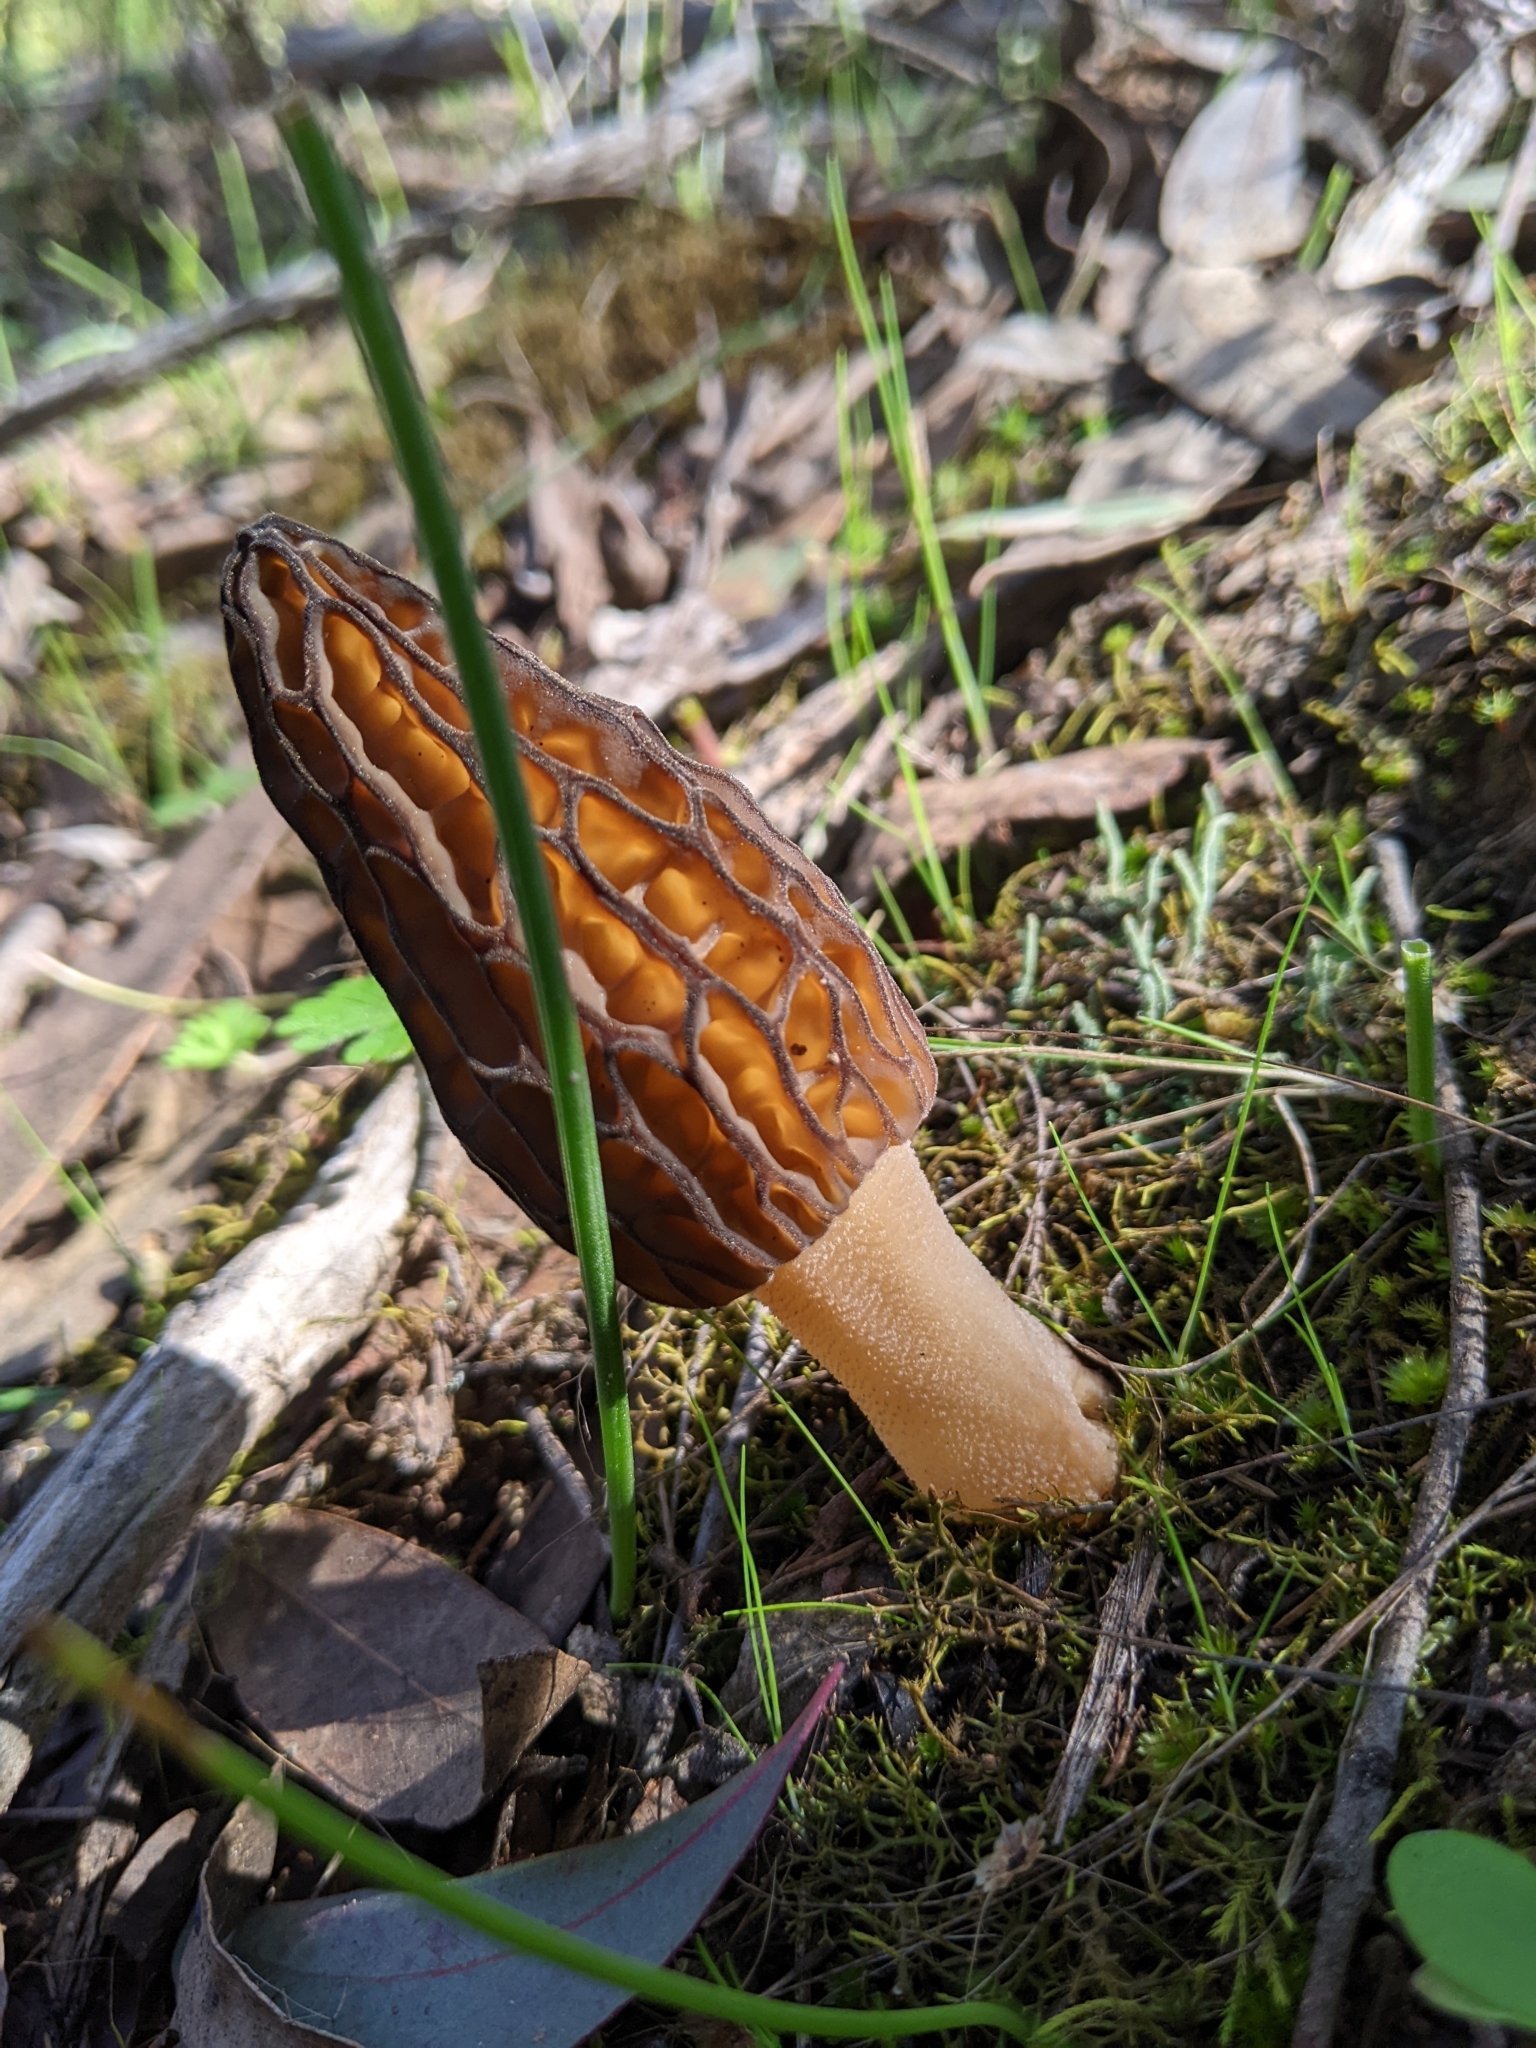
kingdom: Fungi
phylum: Ascomycota
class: Pezizomycetes
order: Pezizales
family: Morchellaceae
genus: Morchella
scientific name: Morchella australiana
